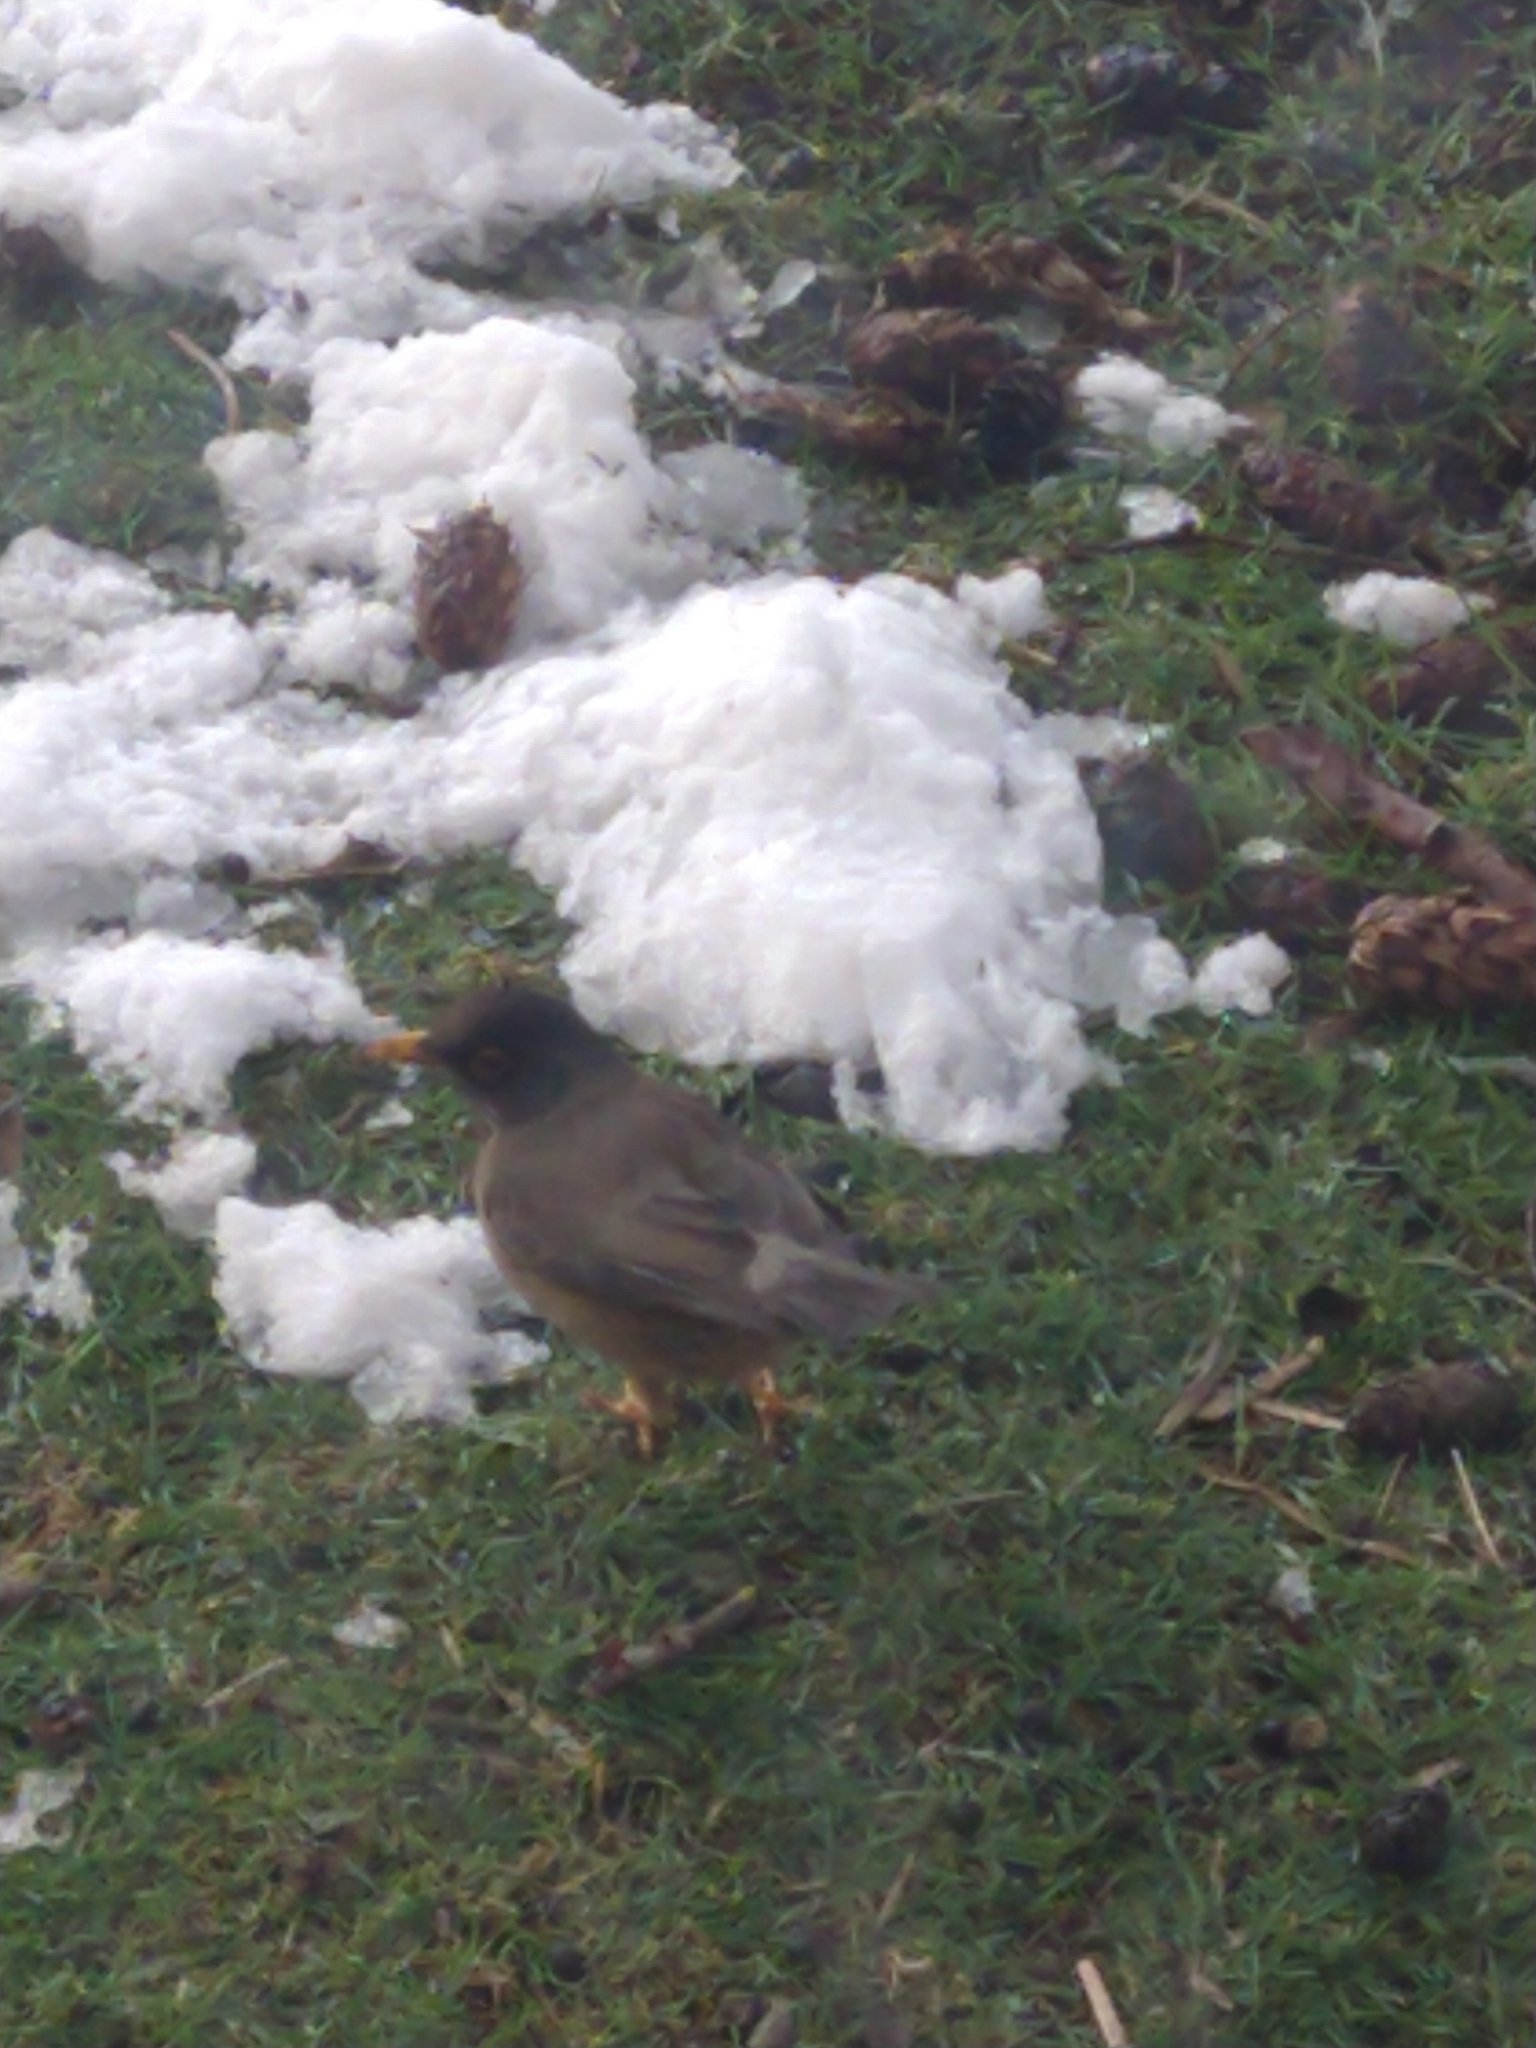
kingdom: Animalia
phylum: Chordata
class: Aves
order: Passeriformes
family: Turdidae
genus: Turdus
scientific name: Turdus falcklandii
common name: Austral thrush
